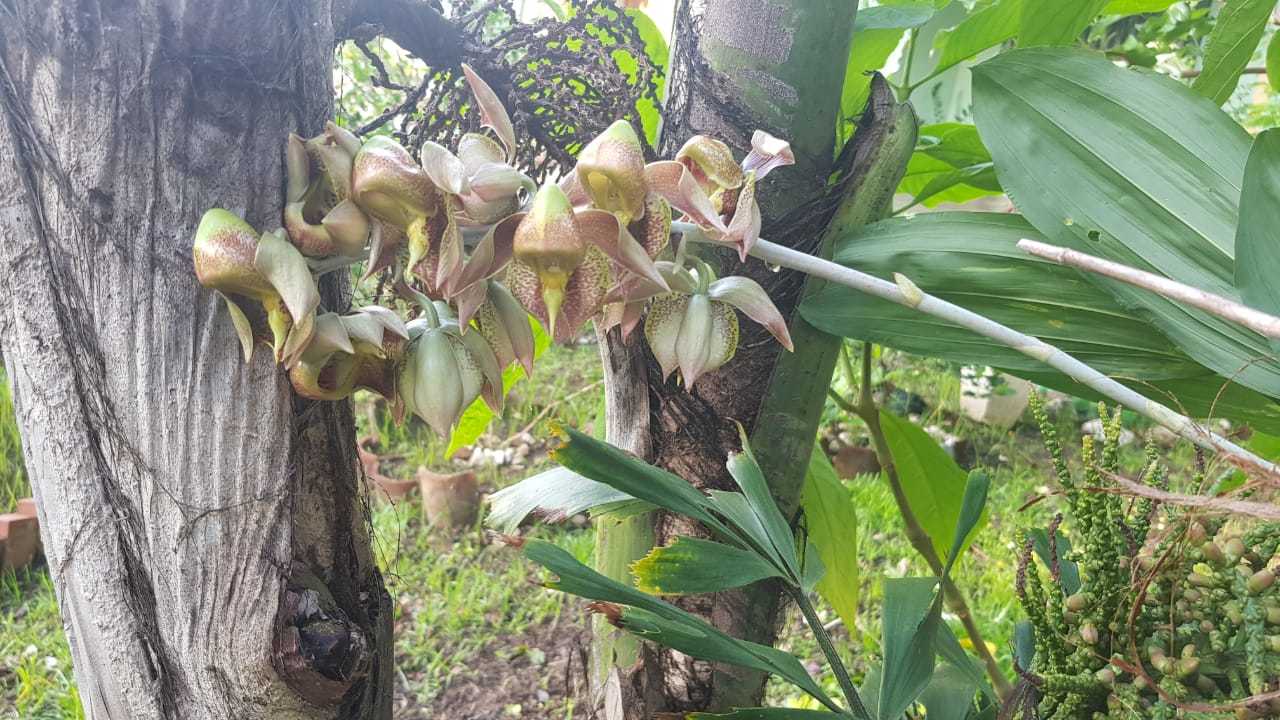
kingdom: Plantae
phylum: Tracheophyta
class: Liliopsida
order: Asparagales
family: Orchidaceae
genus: Catasetum
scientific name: Catasetum maculatum
